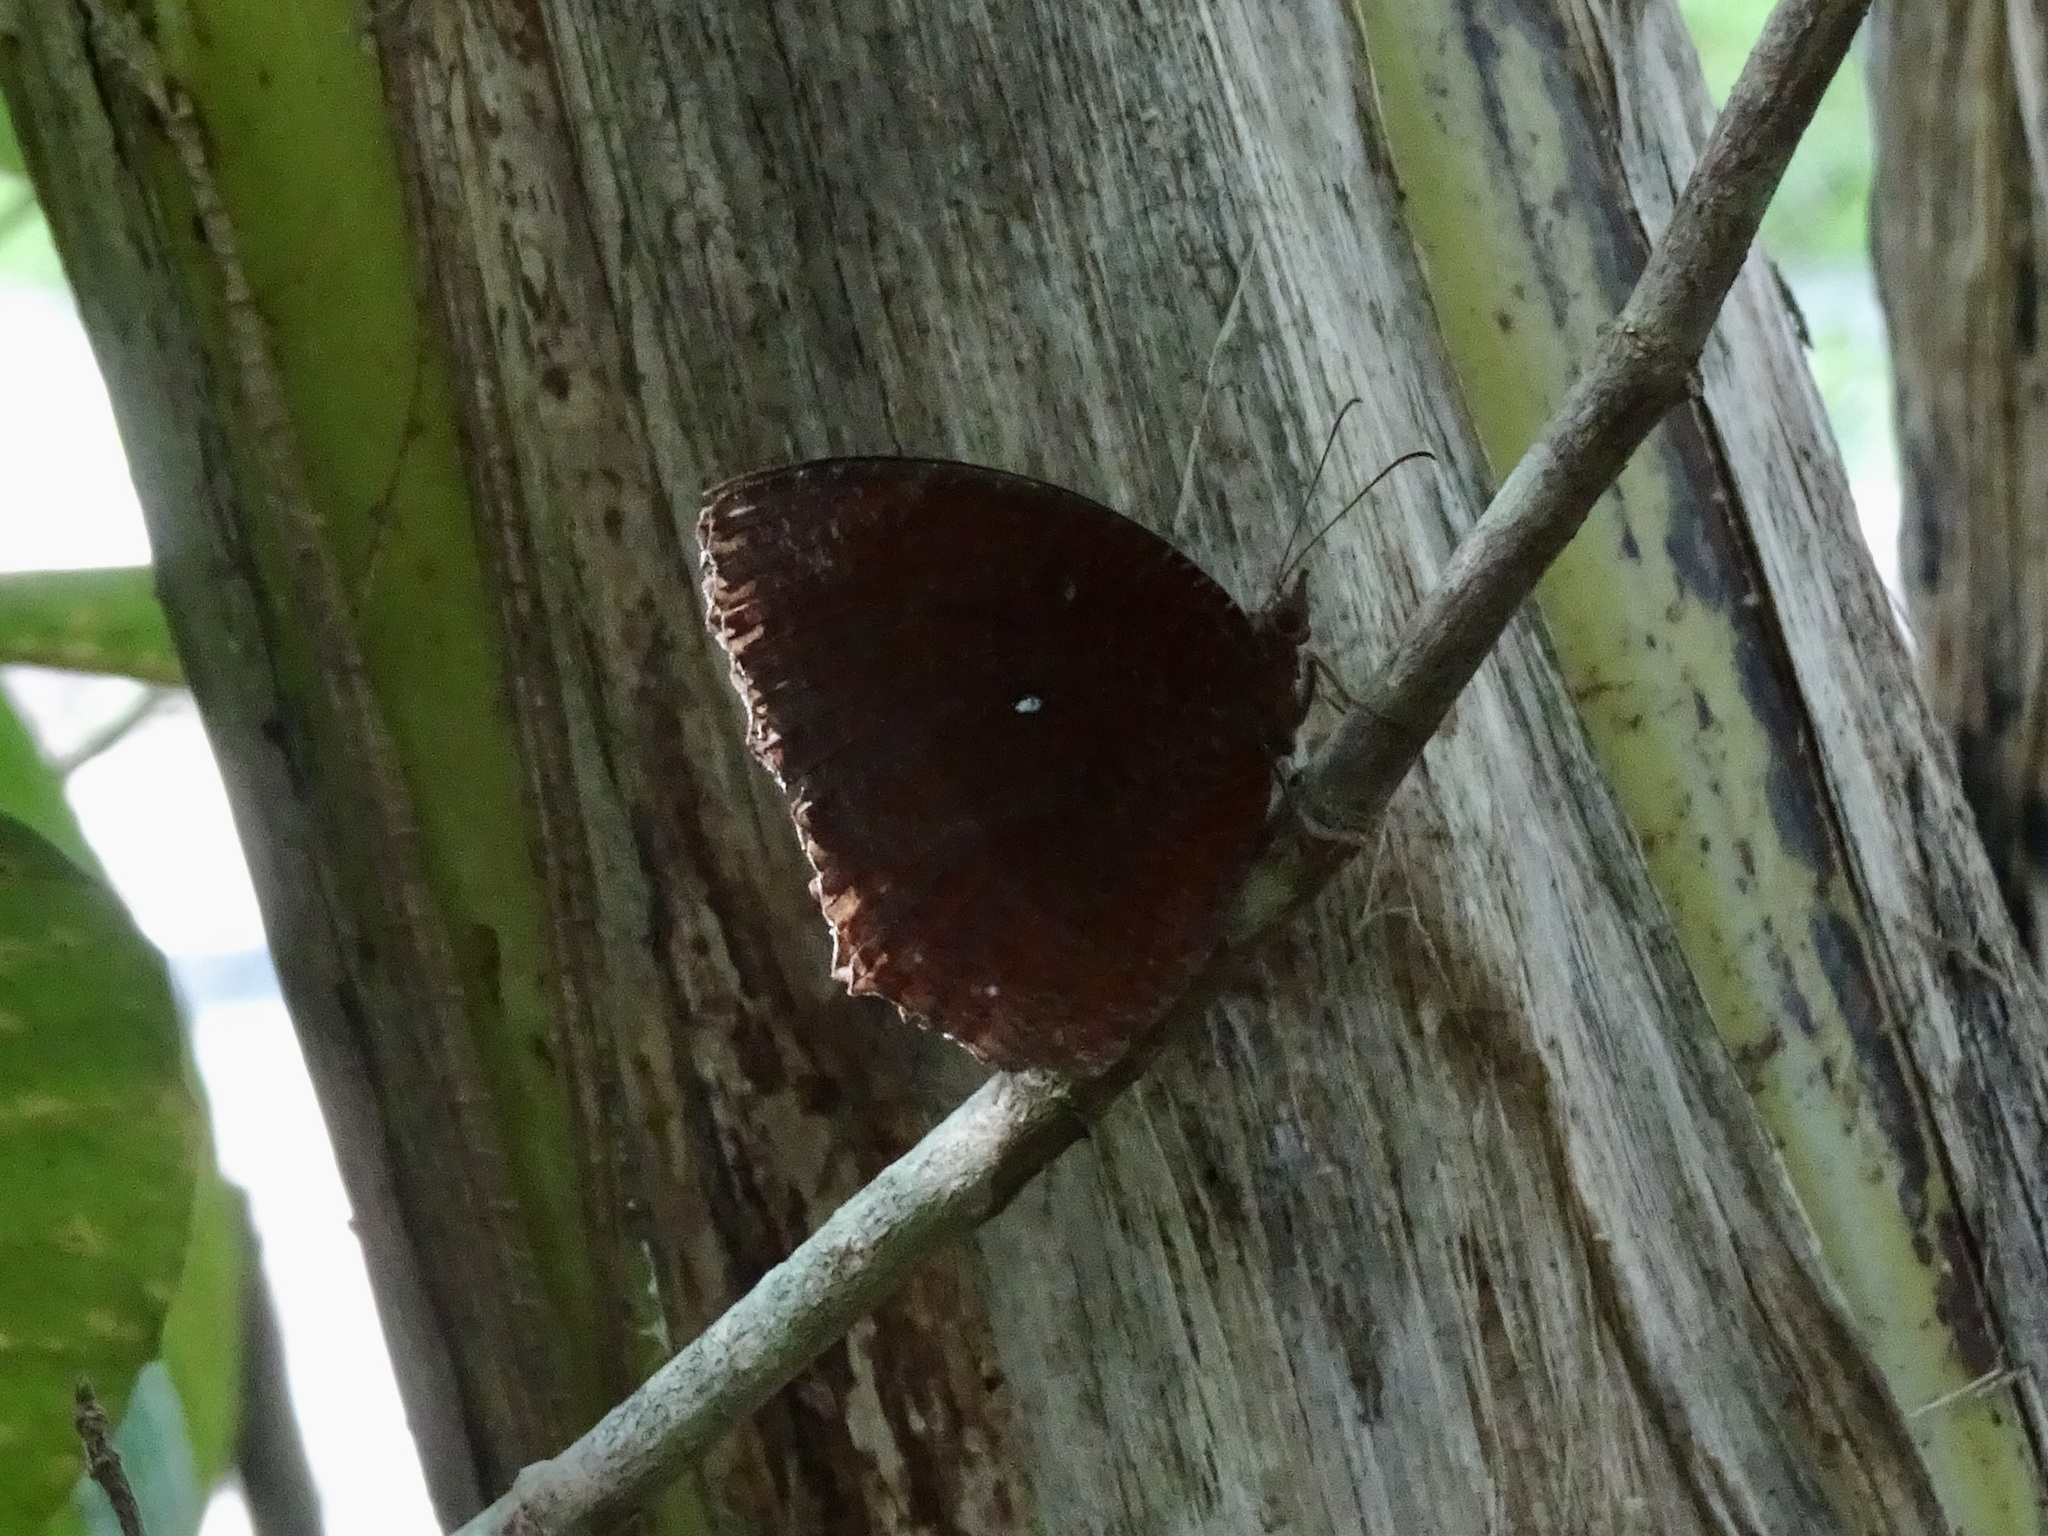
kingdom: Animalia
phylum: Arthropoda
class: Insecta
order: Lepidoptera
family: Nymphalidae
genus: Elymnias
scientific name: Elymnias hypermnestra
